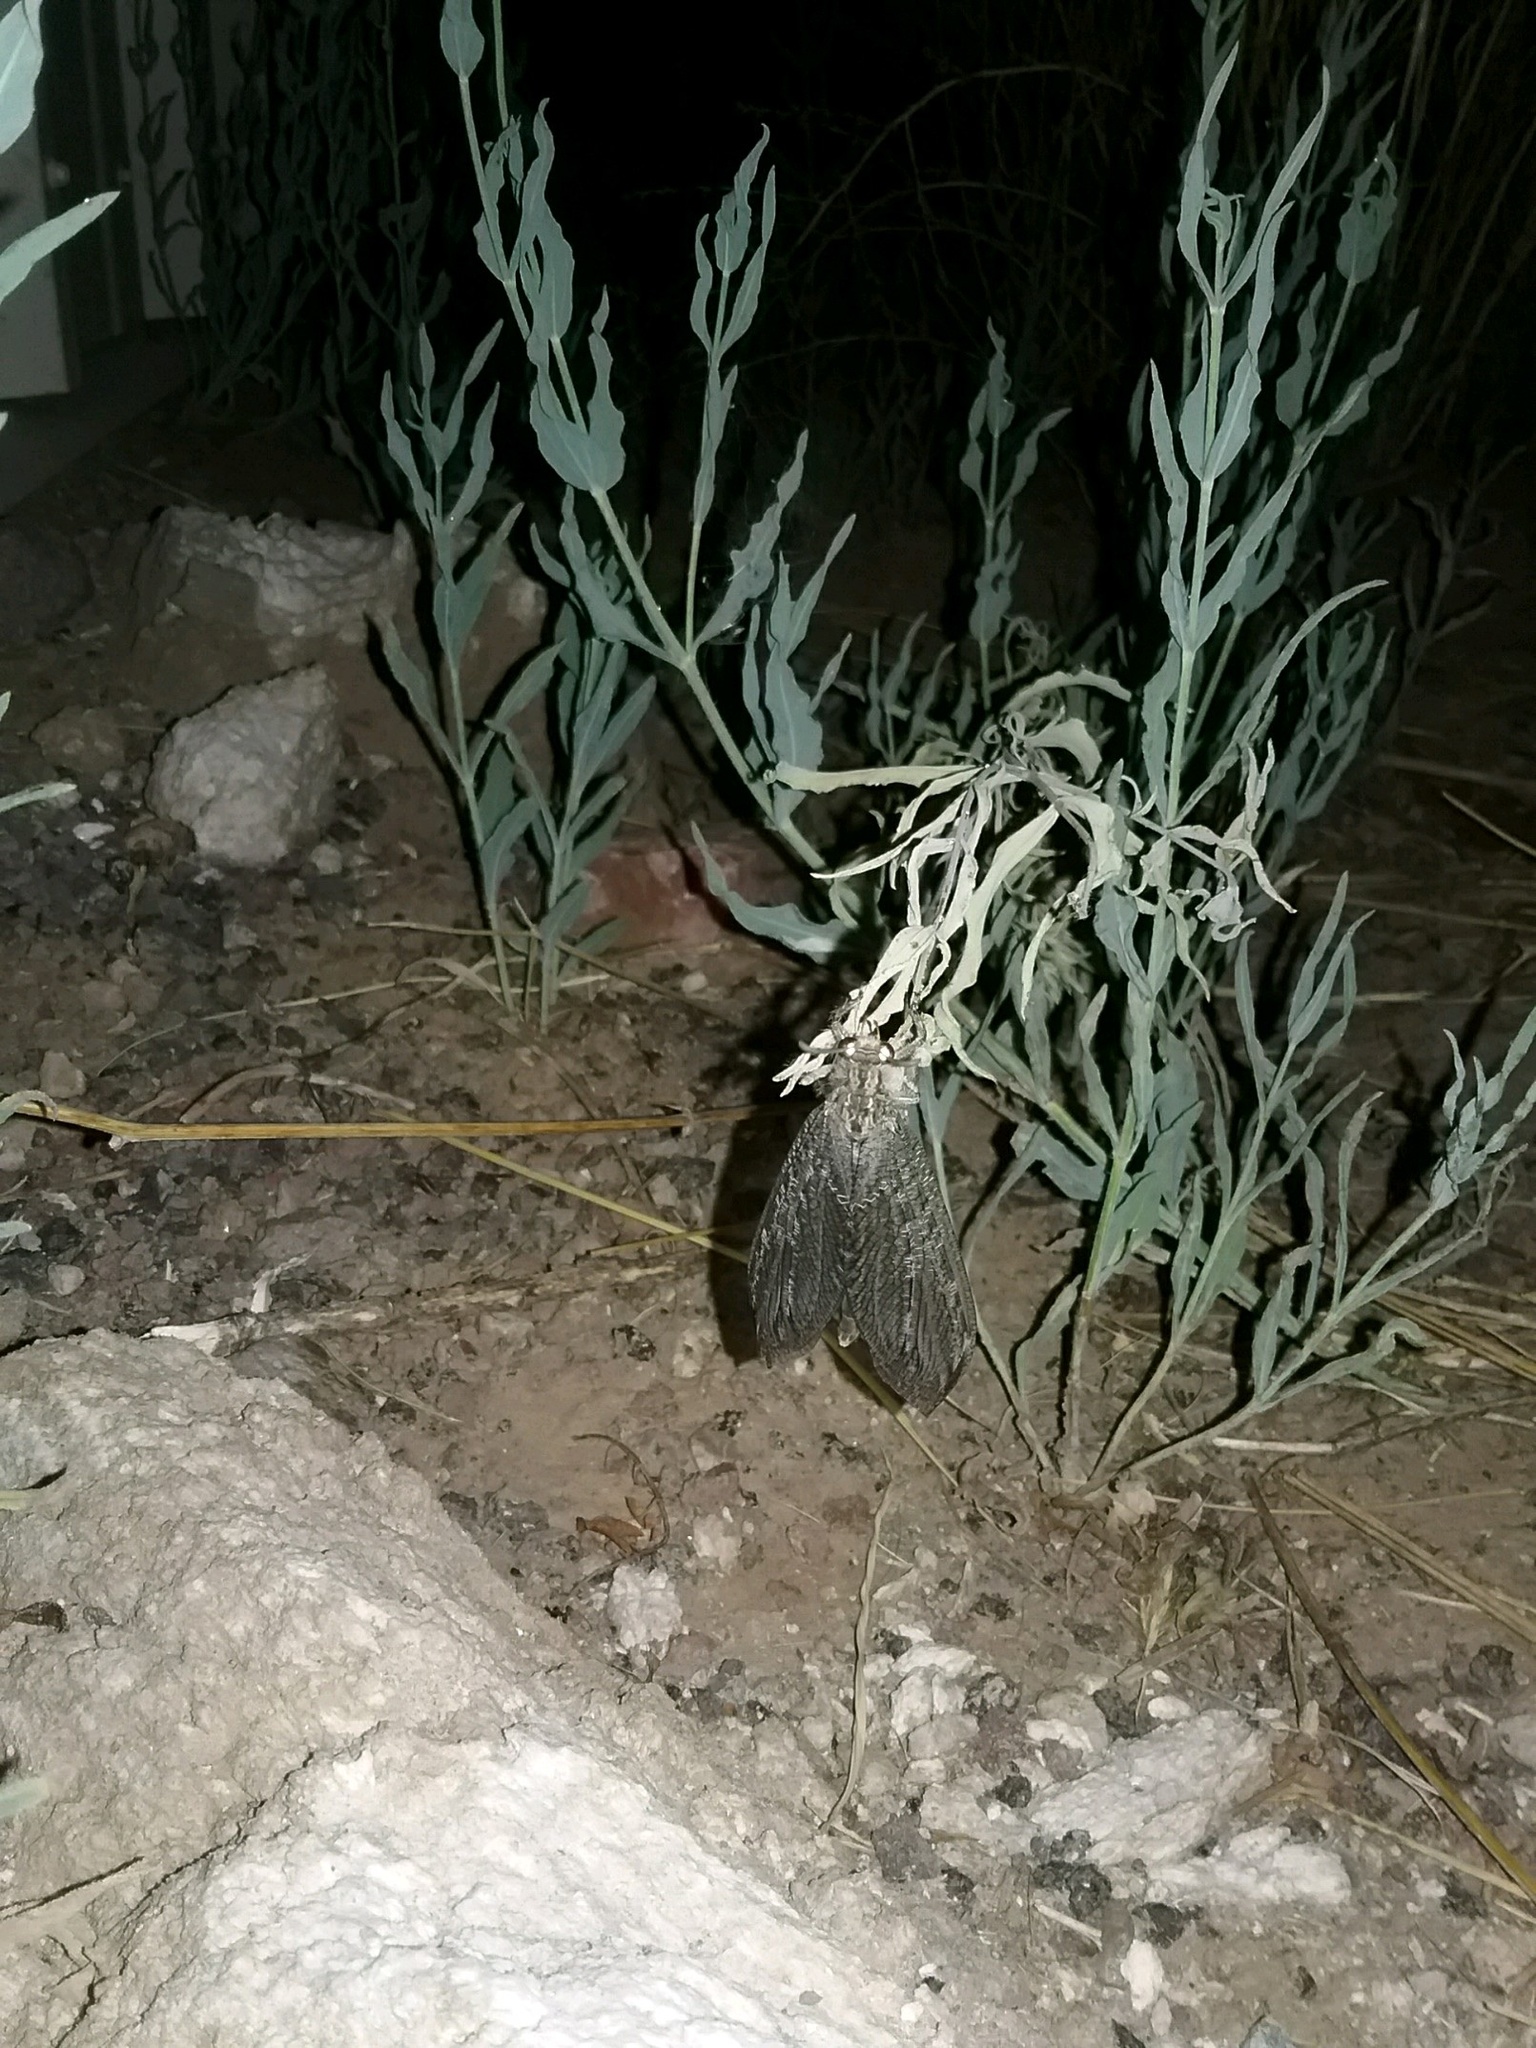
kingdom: Animalia
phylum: Arthropoda
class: Insecta
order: Neuroptera
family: Myrmeleontidae
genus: Vella
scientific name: Vella fallax
